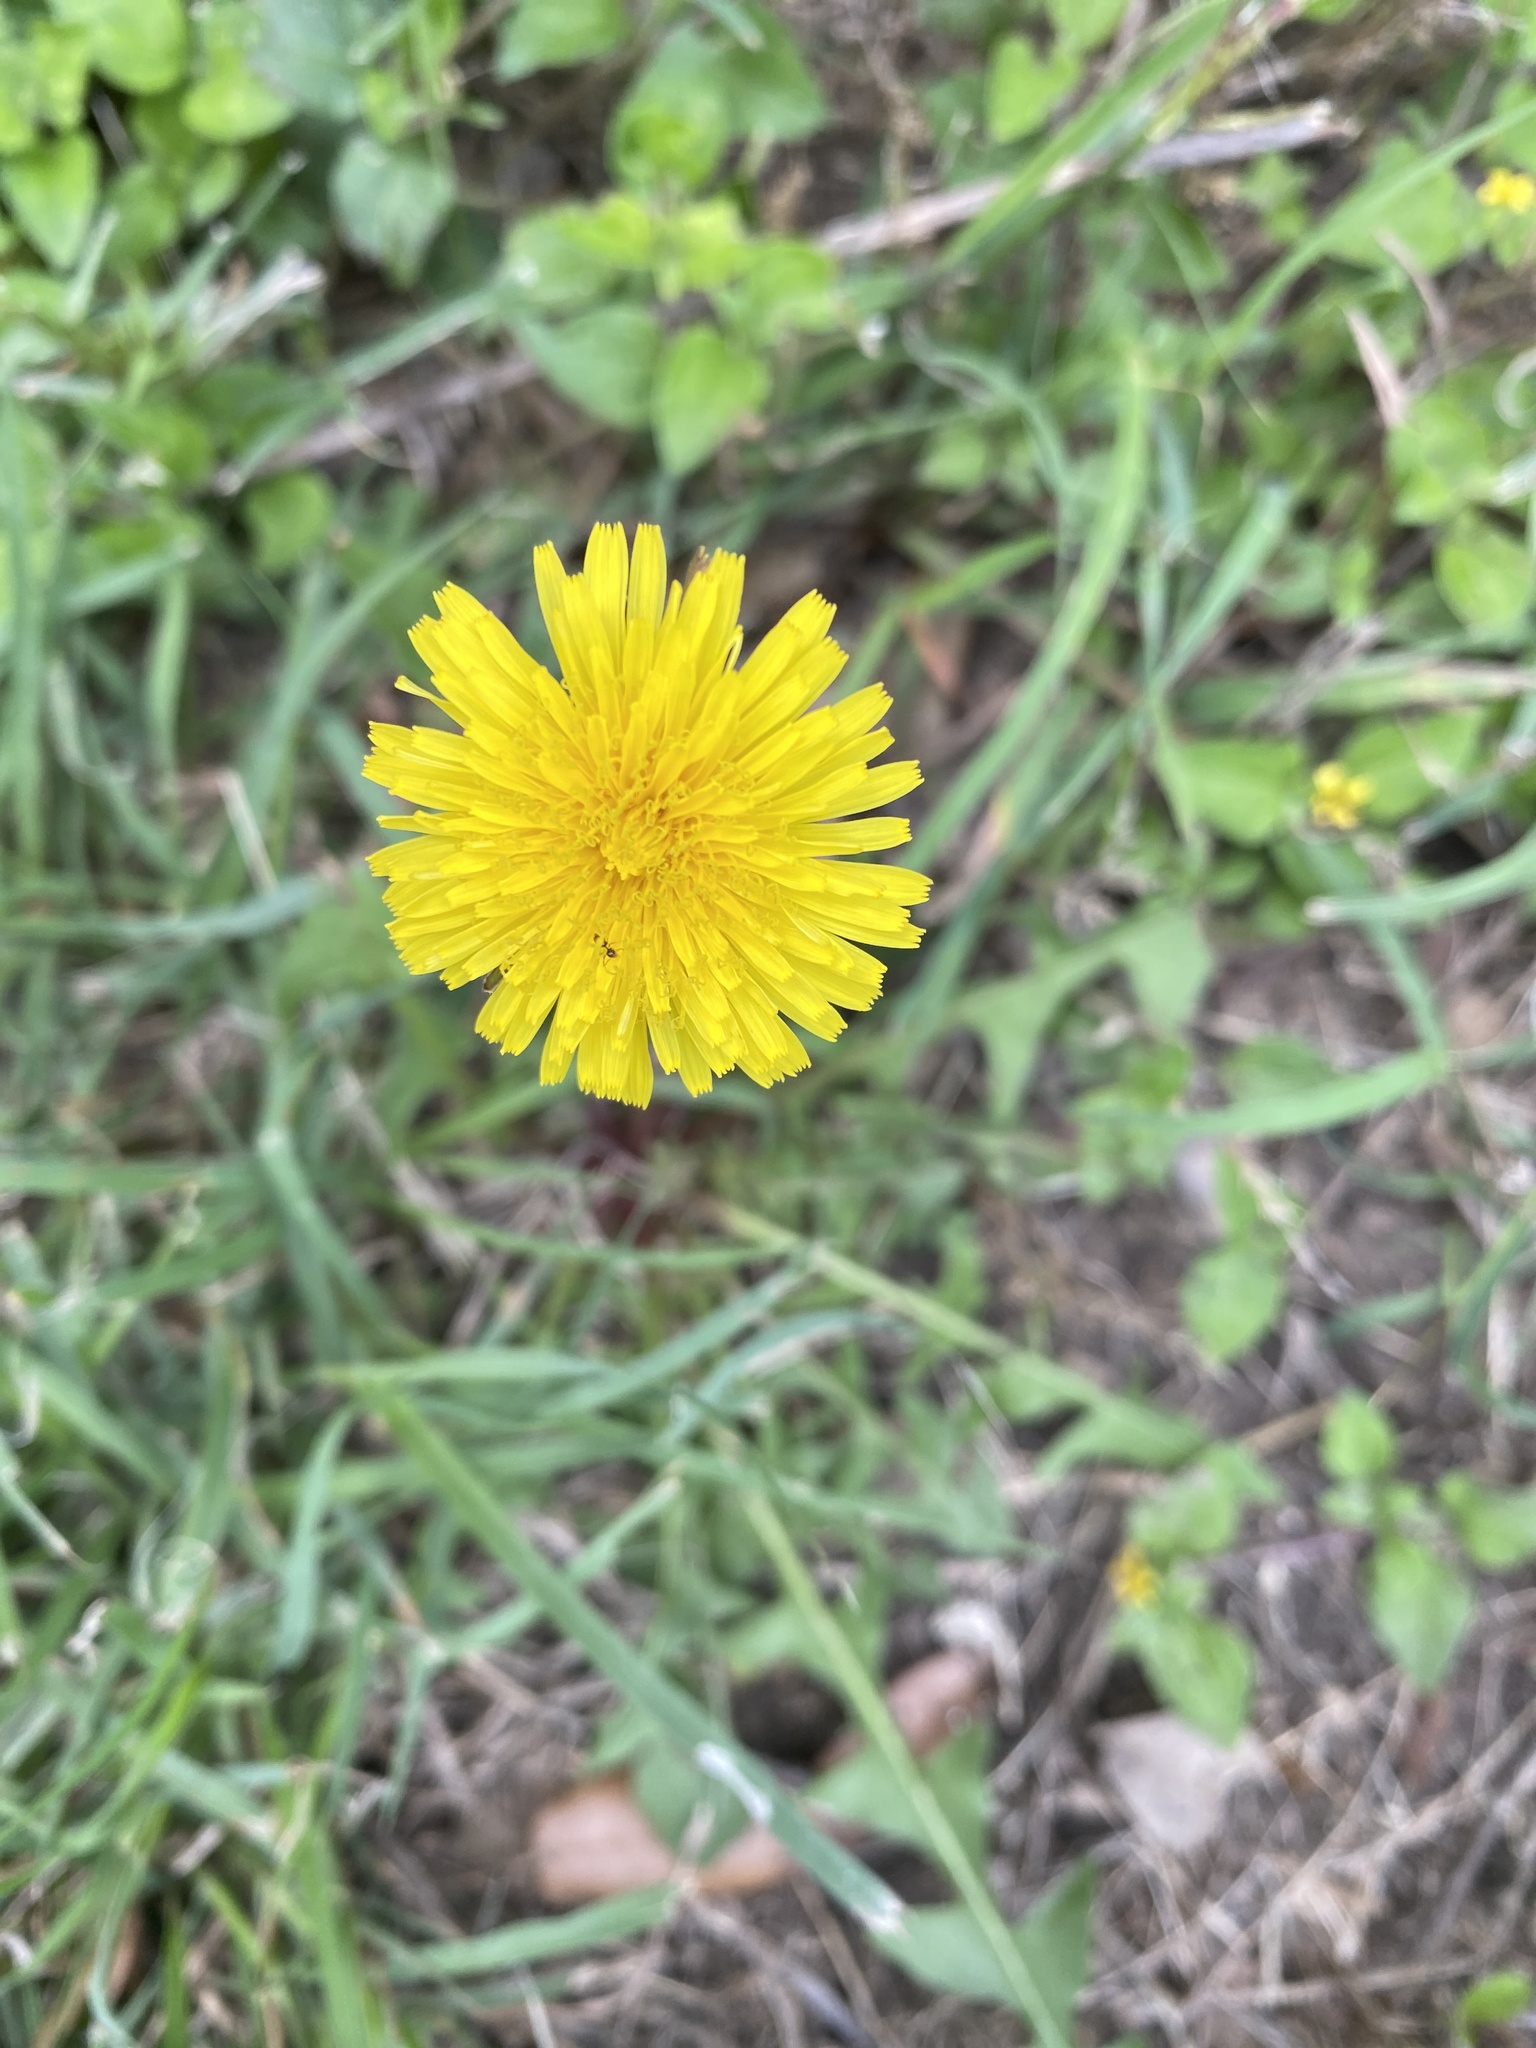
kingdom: Plantae
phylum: Tracheophyta
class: Magnoliopsida
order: Asterales
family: Asteraceae
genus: Taraxacum
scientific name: Taraxacum officinale
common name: Common dandelion
